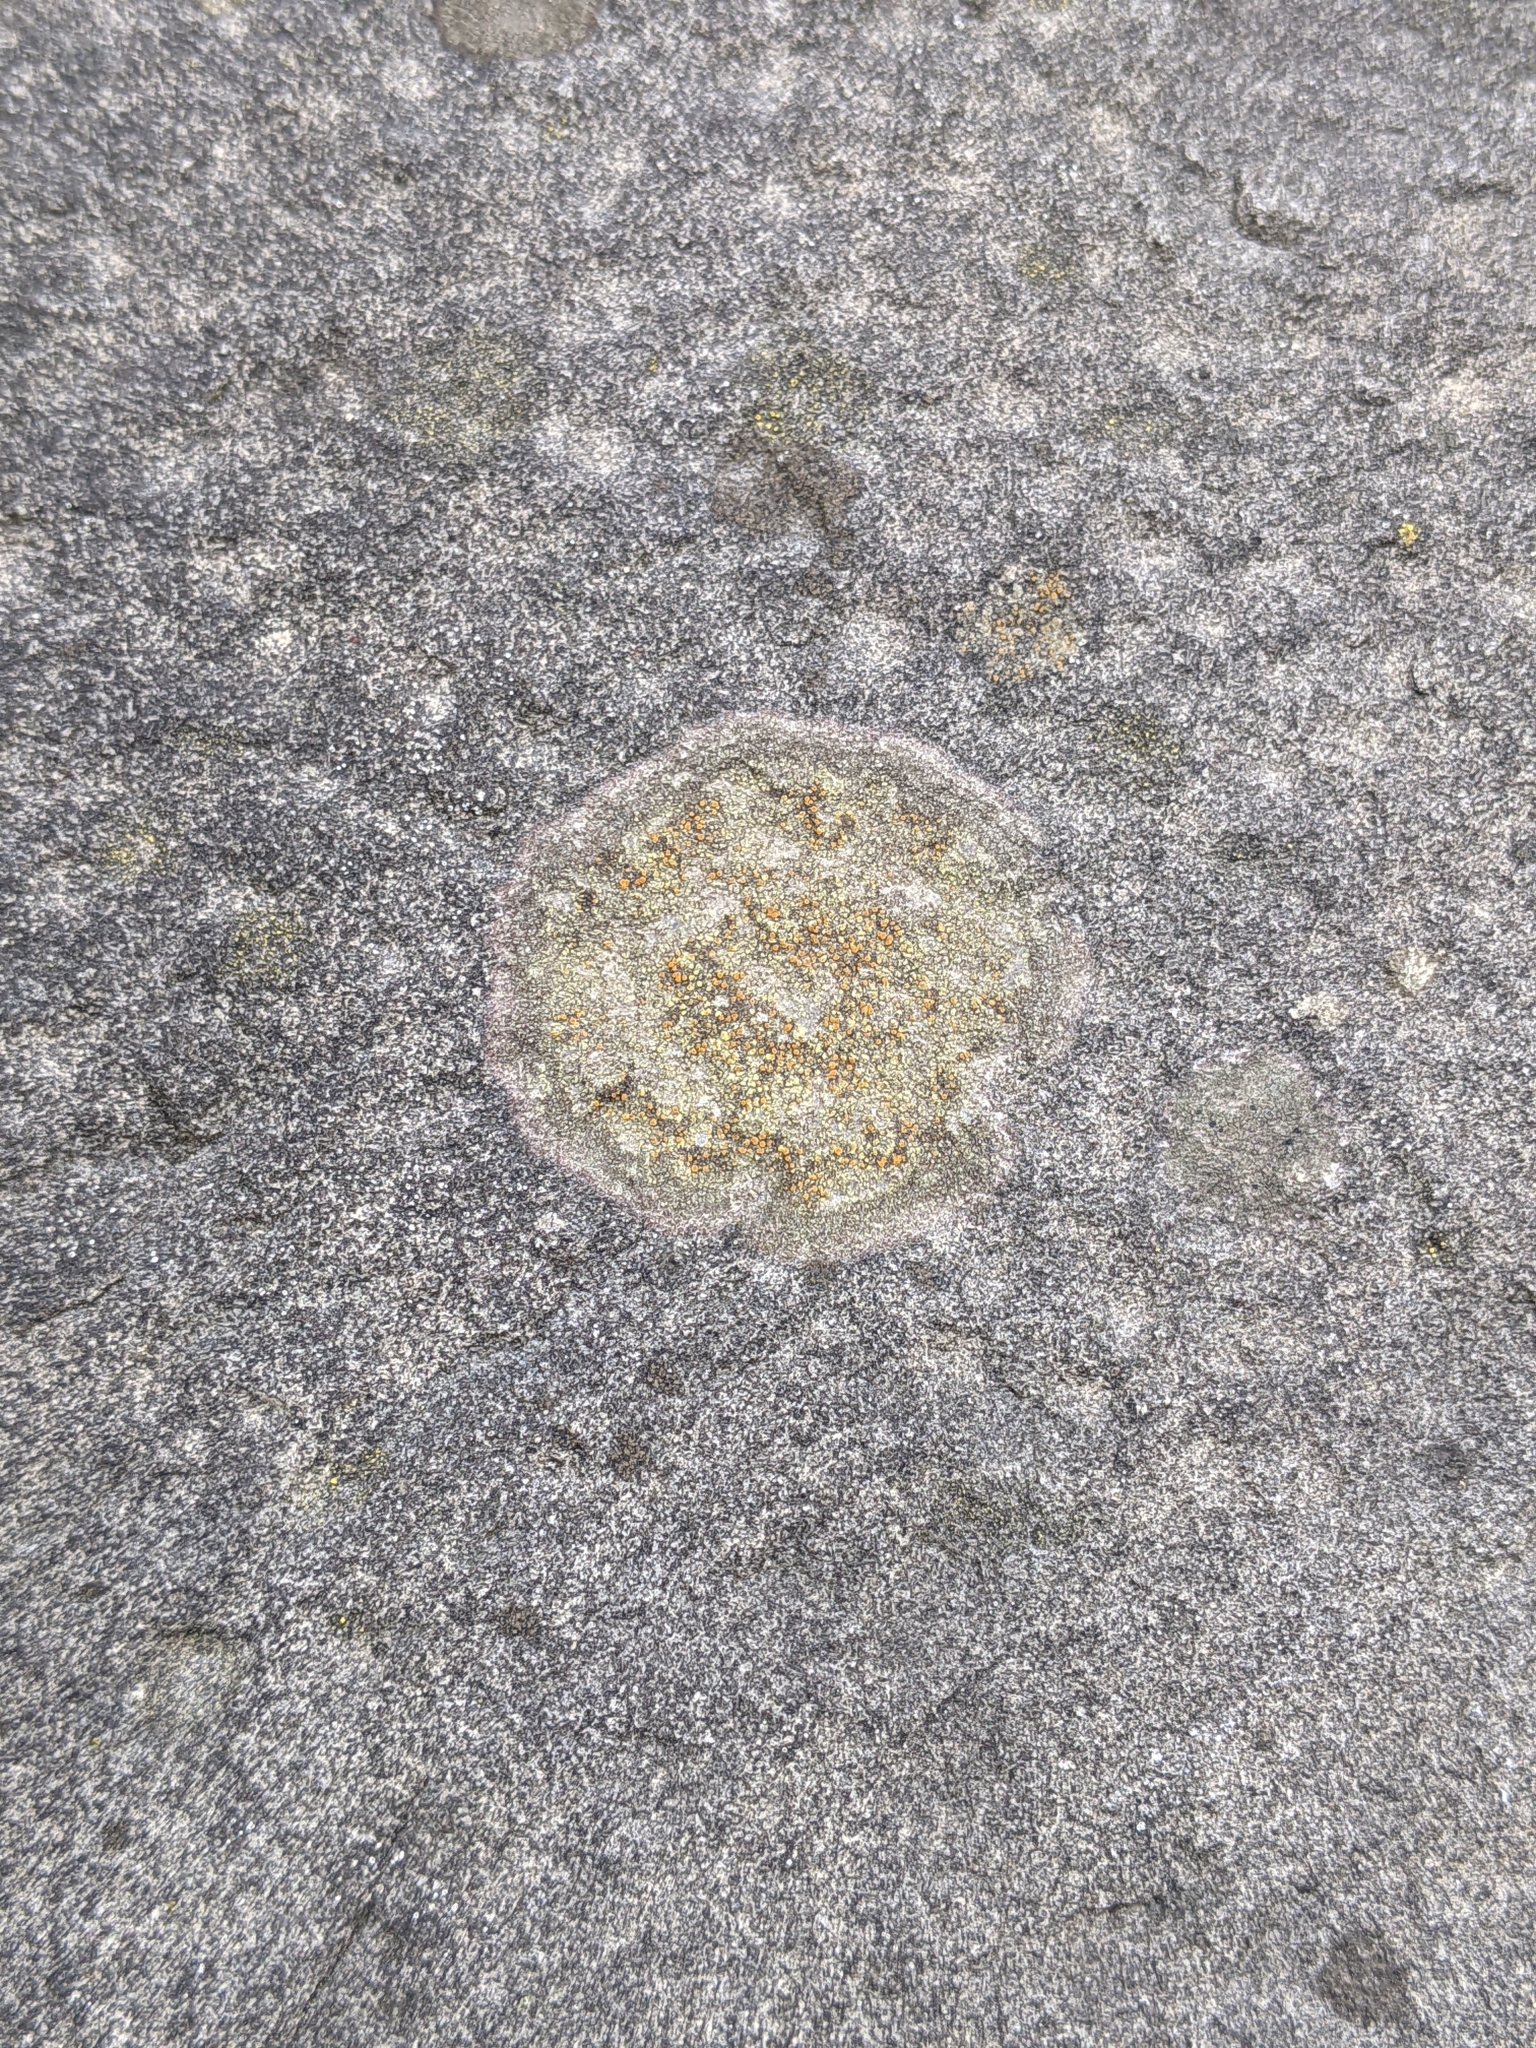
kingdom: Fungi
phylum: Ascomycota
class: Lecanoromycetes
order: Teloschistales
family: Teloschistaceae
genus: Gyalolechia
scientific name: Gyalolechia flavovirescens
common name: Sulphur firedot
